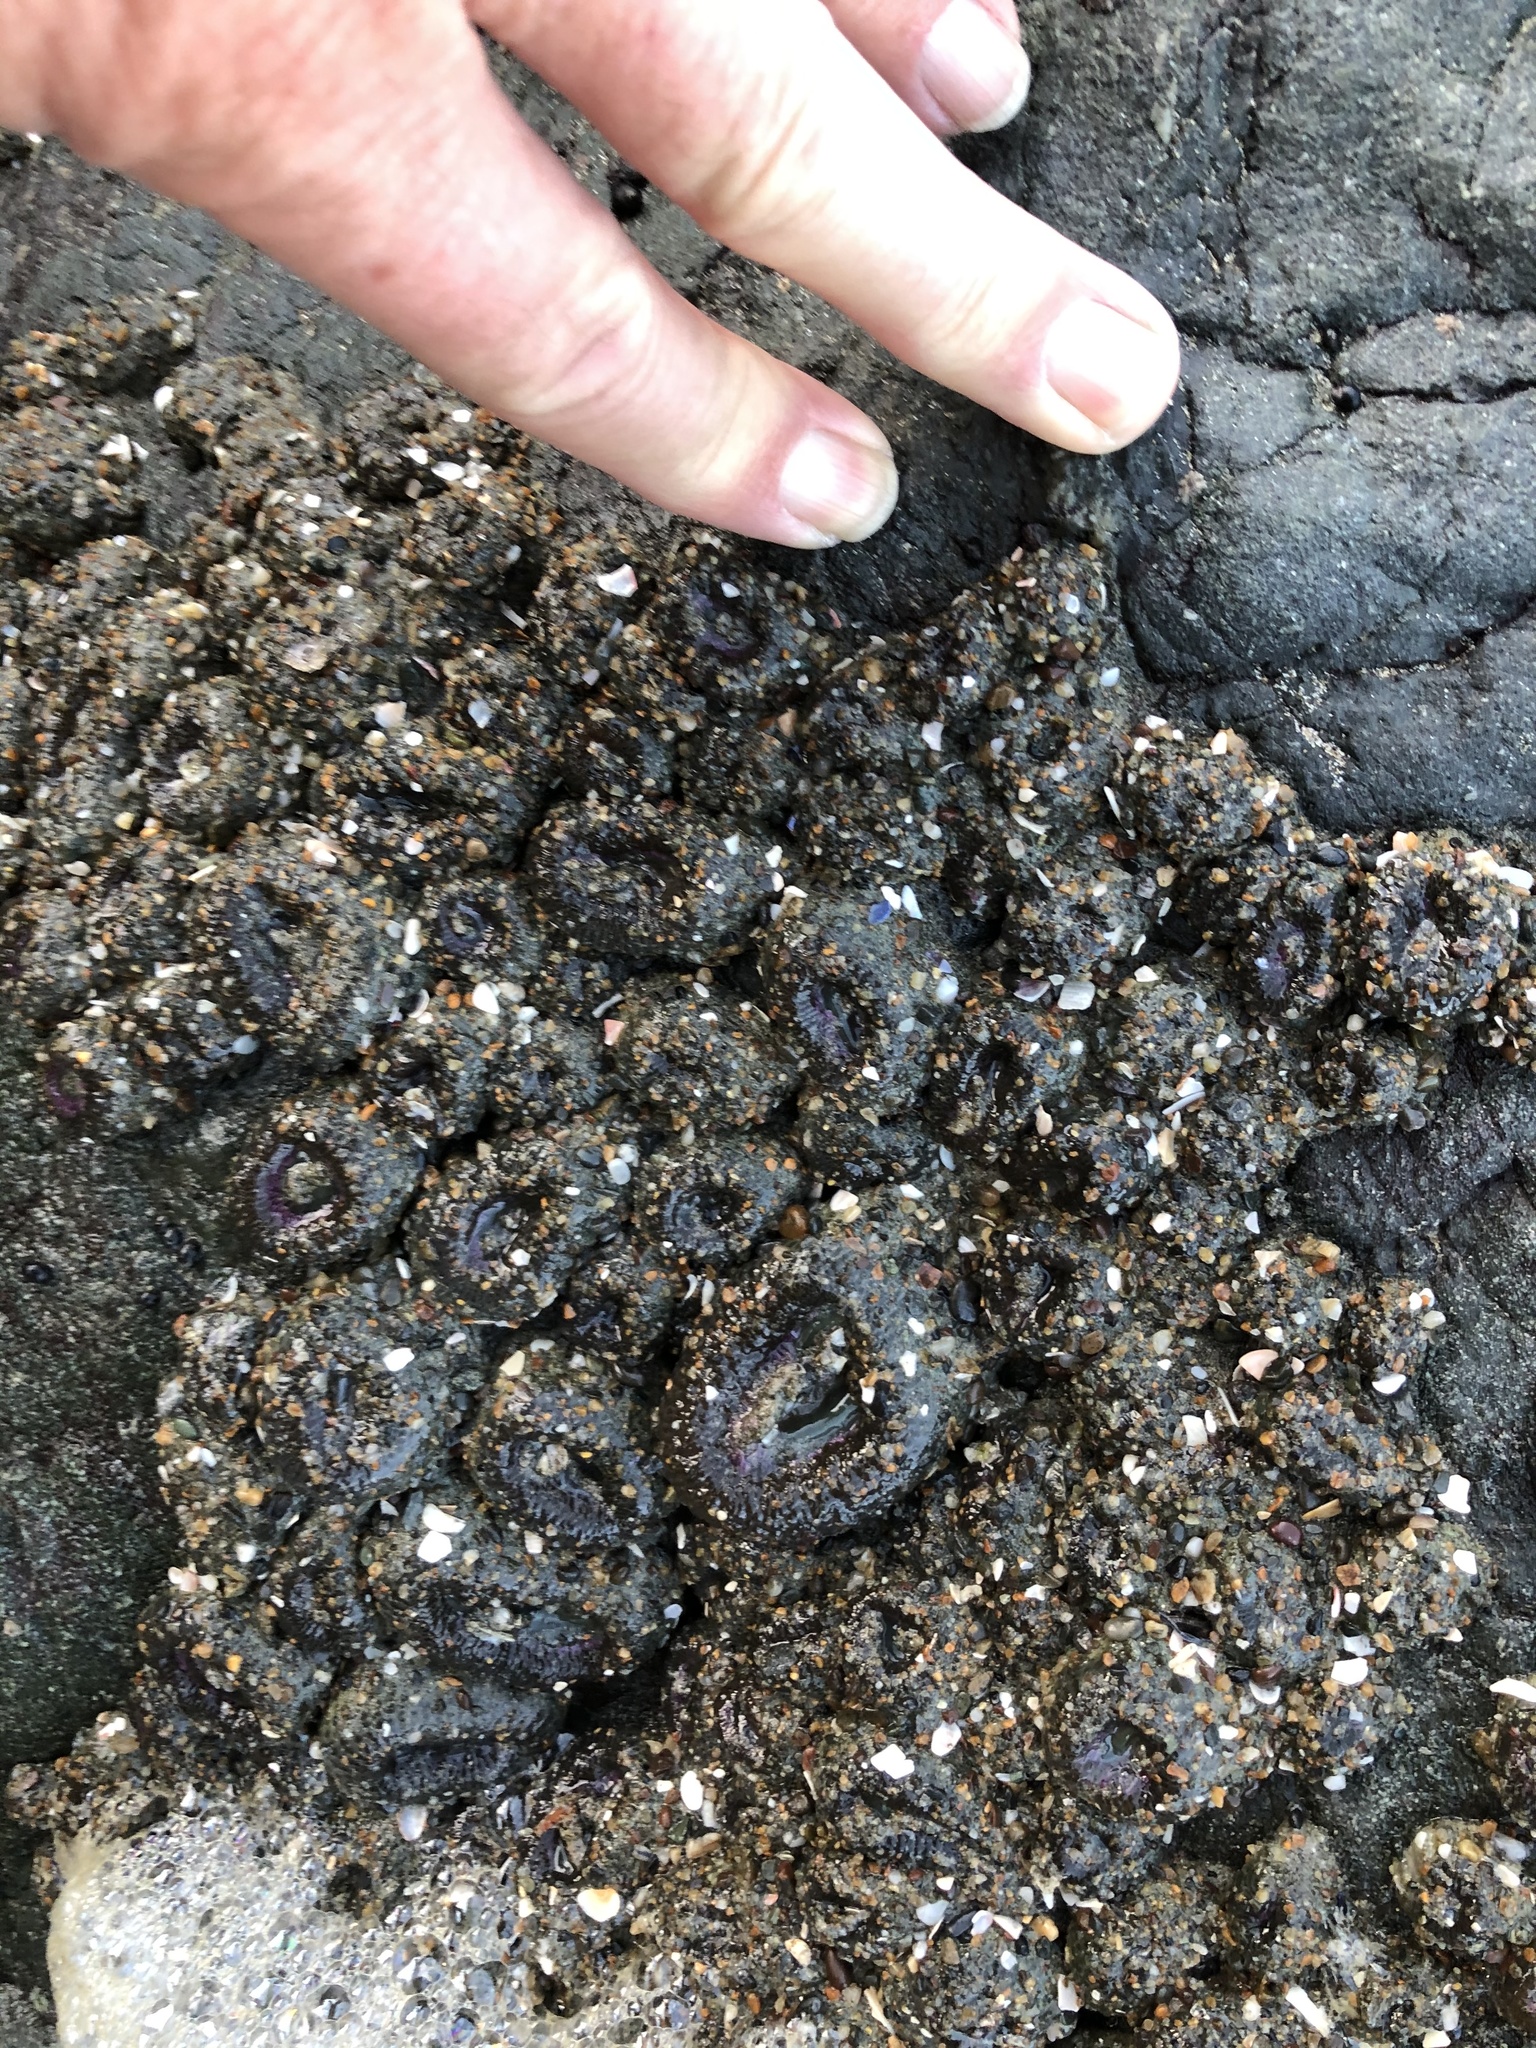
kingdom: Animalia
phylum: Cnidaria
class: Anthozoa
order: Actiniaria
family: Actiniidae
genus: Anthopleura
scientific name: Anthopleura elegantissima
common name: Clonal anemone
